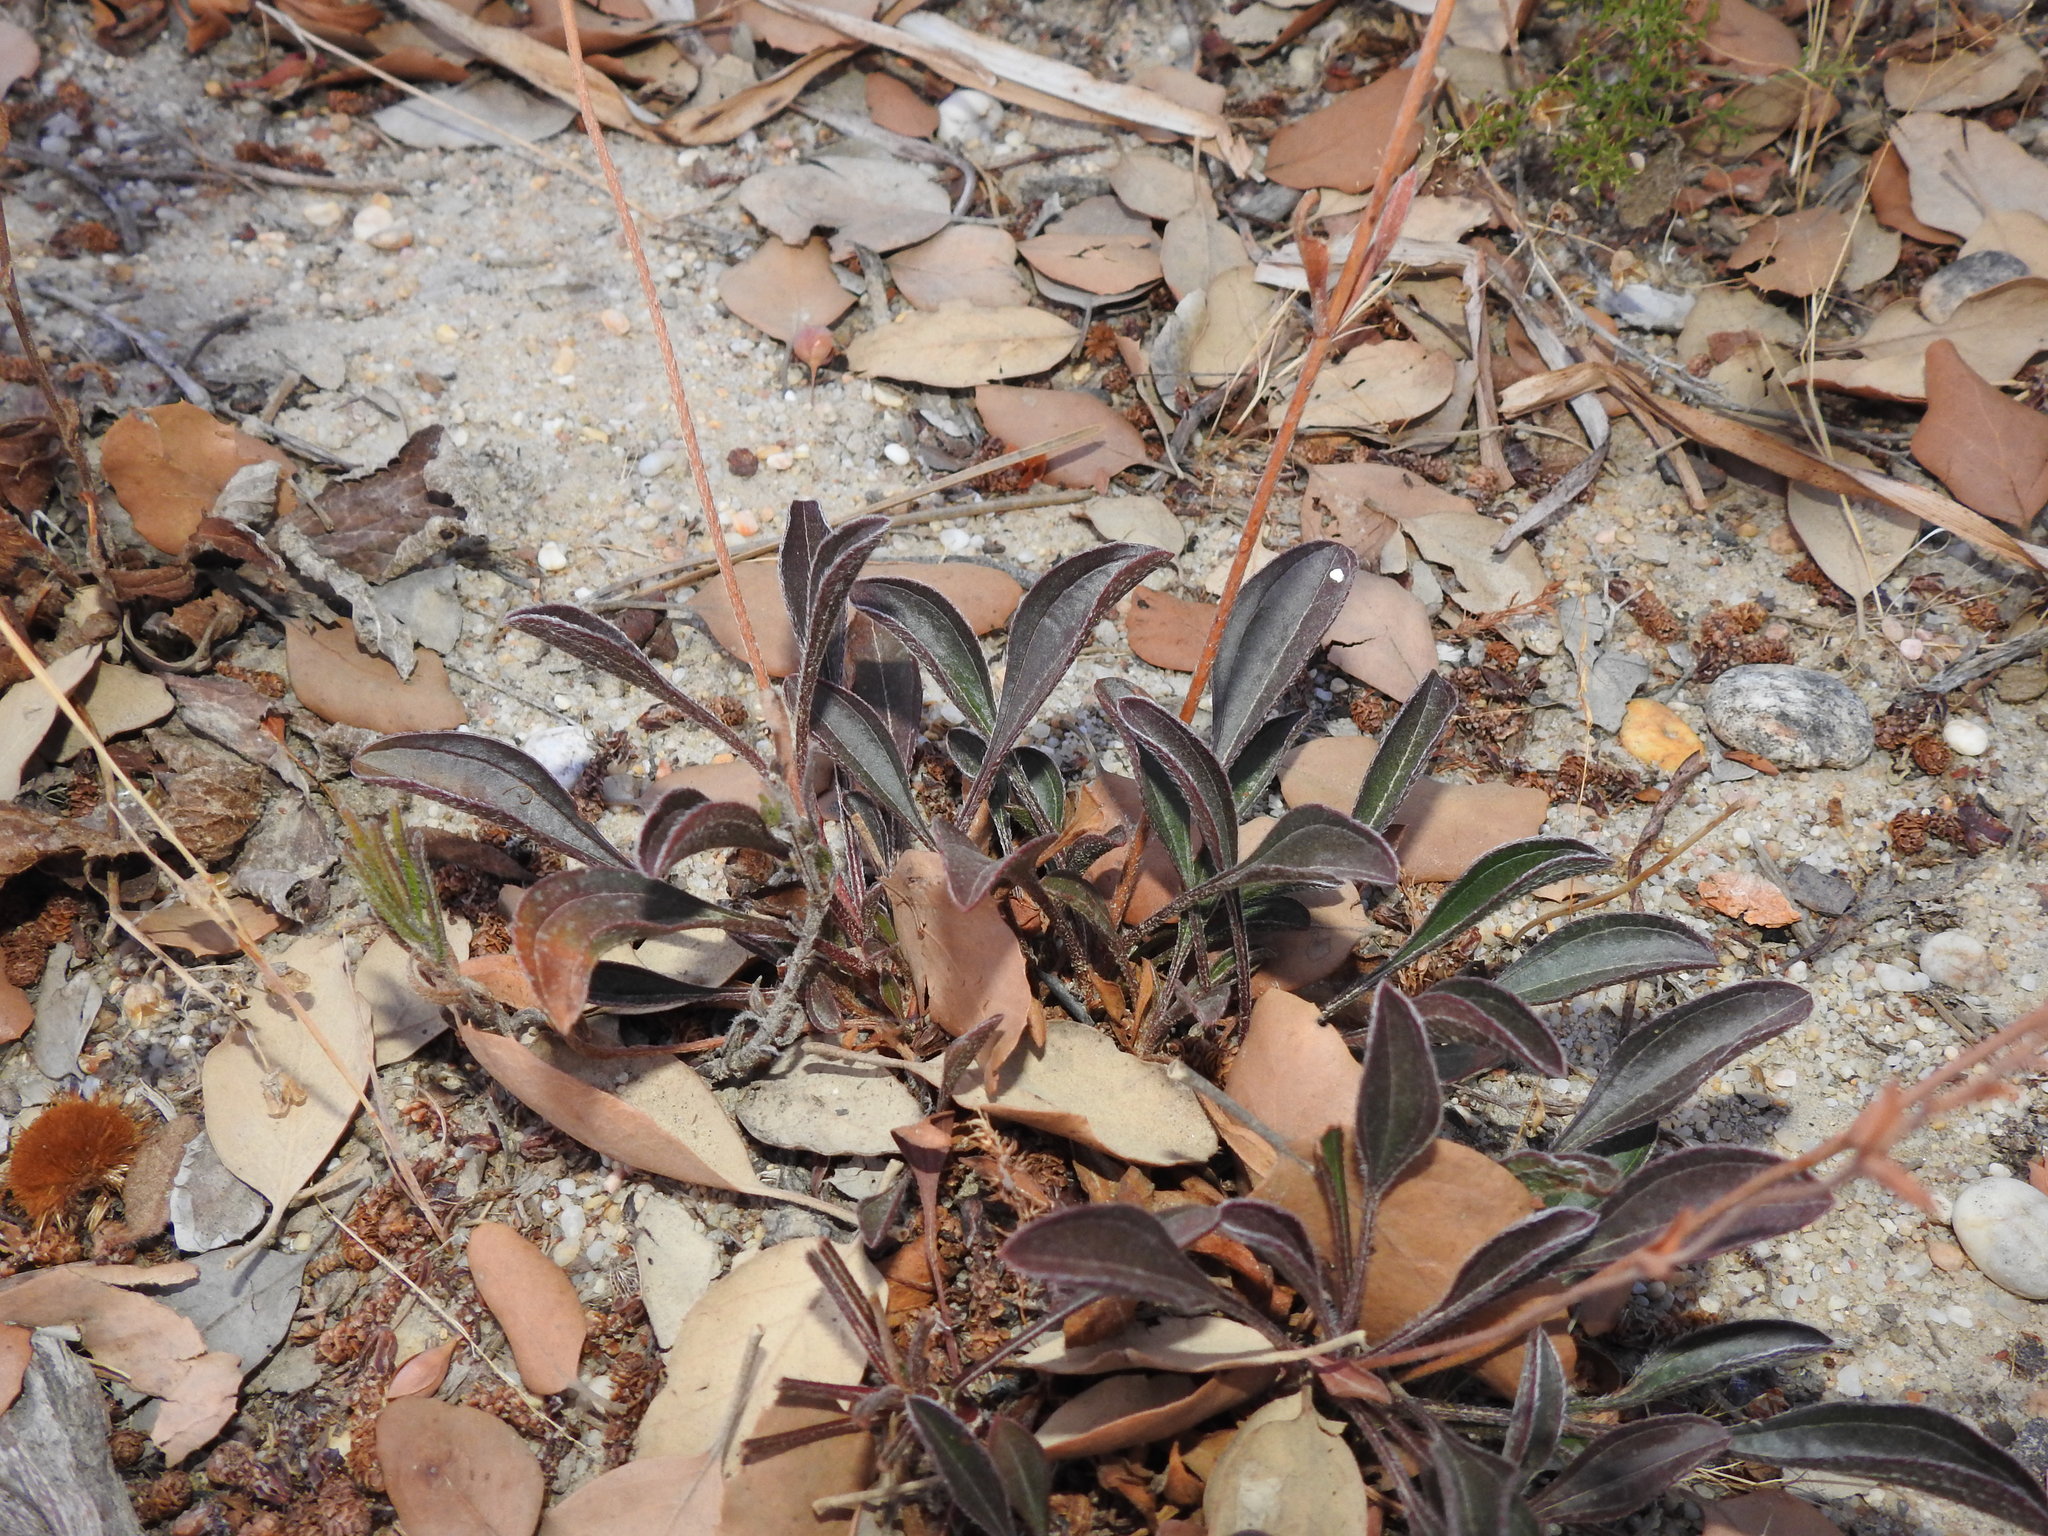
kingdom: Plantae
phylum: Tracheophyta
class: Magnoliopsida
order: Malvales
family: Cistaceae
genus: Tuberaria
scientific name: Tuberaria globulariifolia
